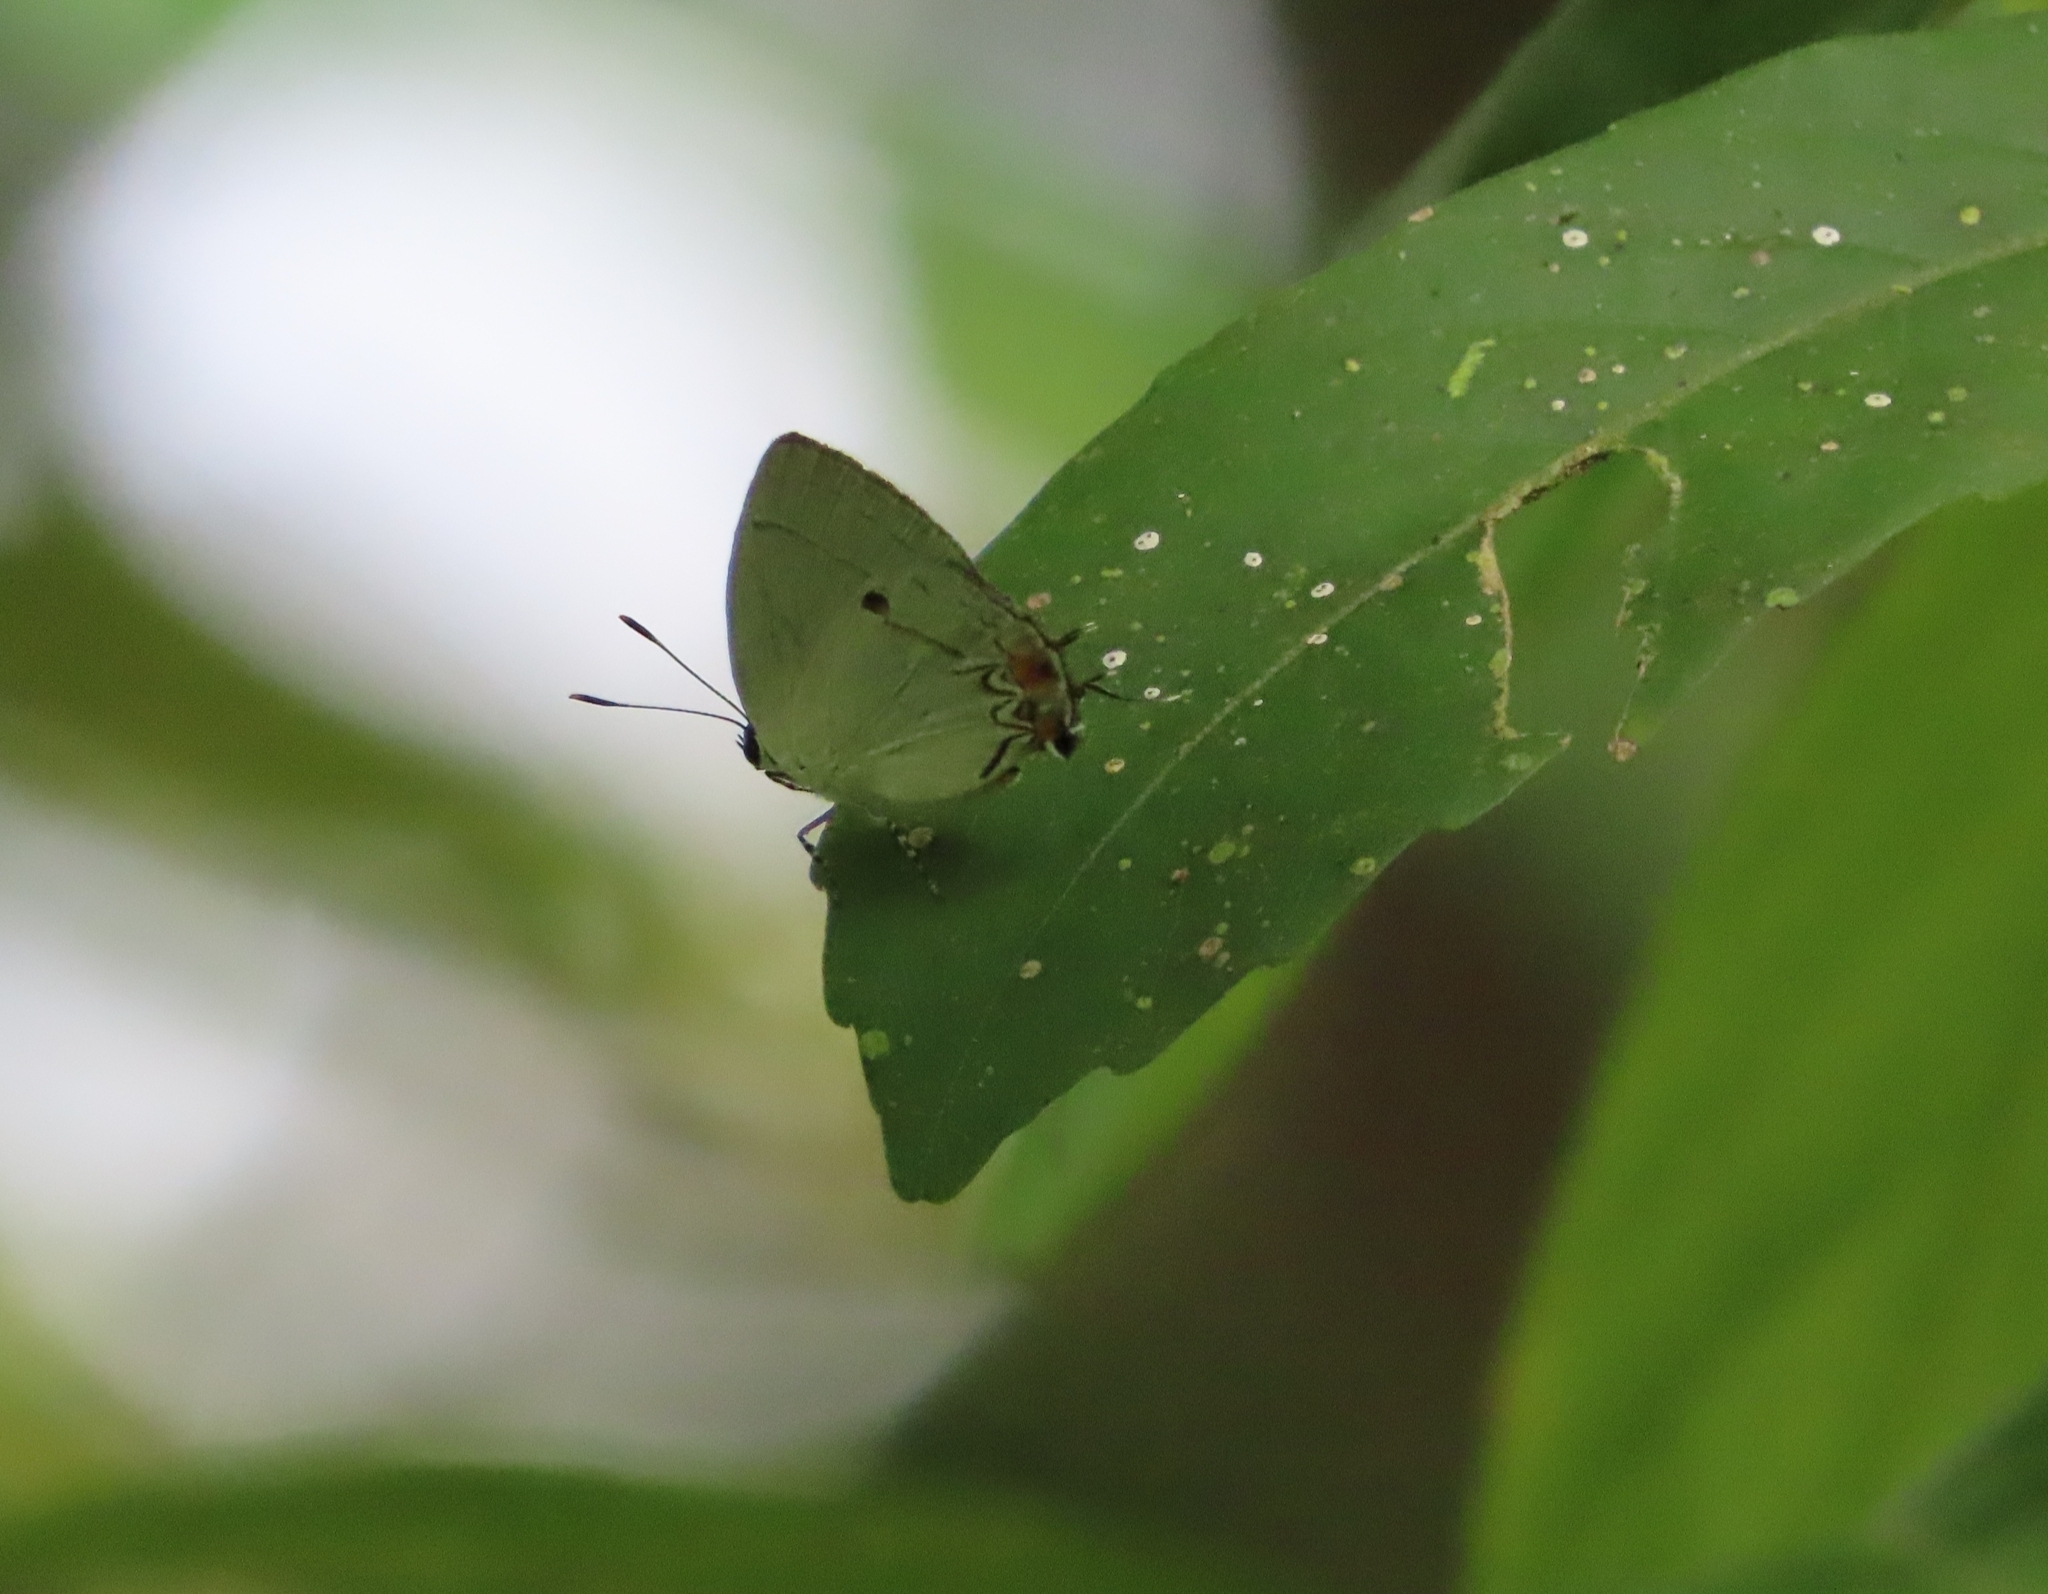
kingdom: Animalia
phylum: Arthropoda
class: Insecta
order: Lepidoptera
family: Lycaenidae
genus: Iaspis
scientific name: Iaspis andersoni
